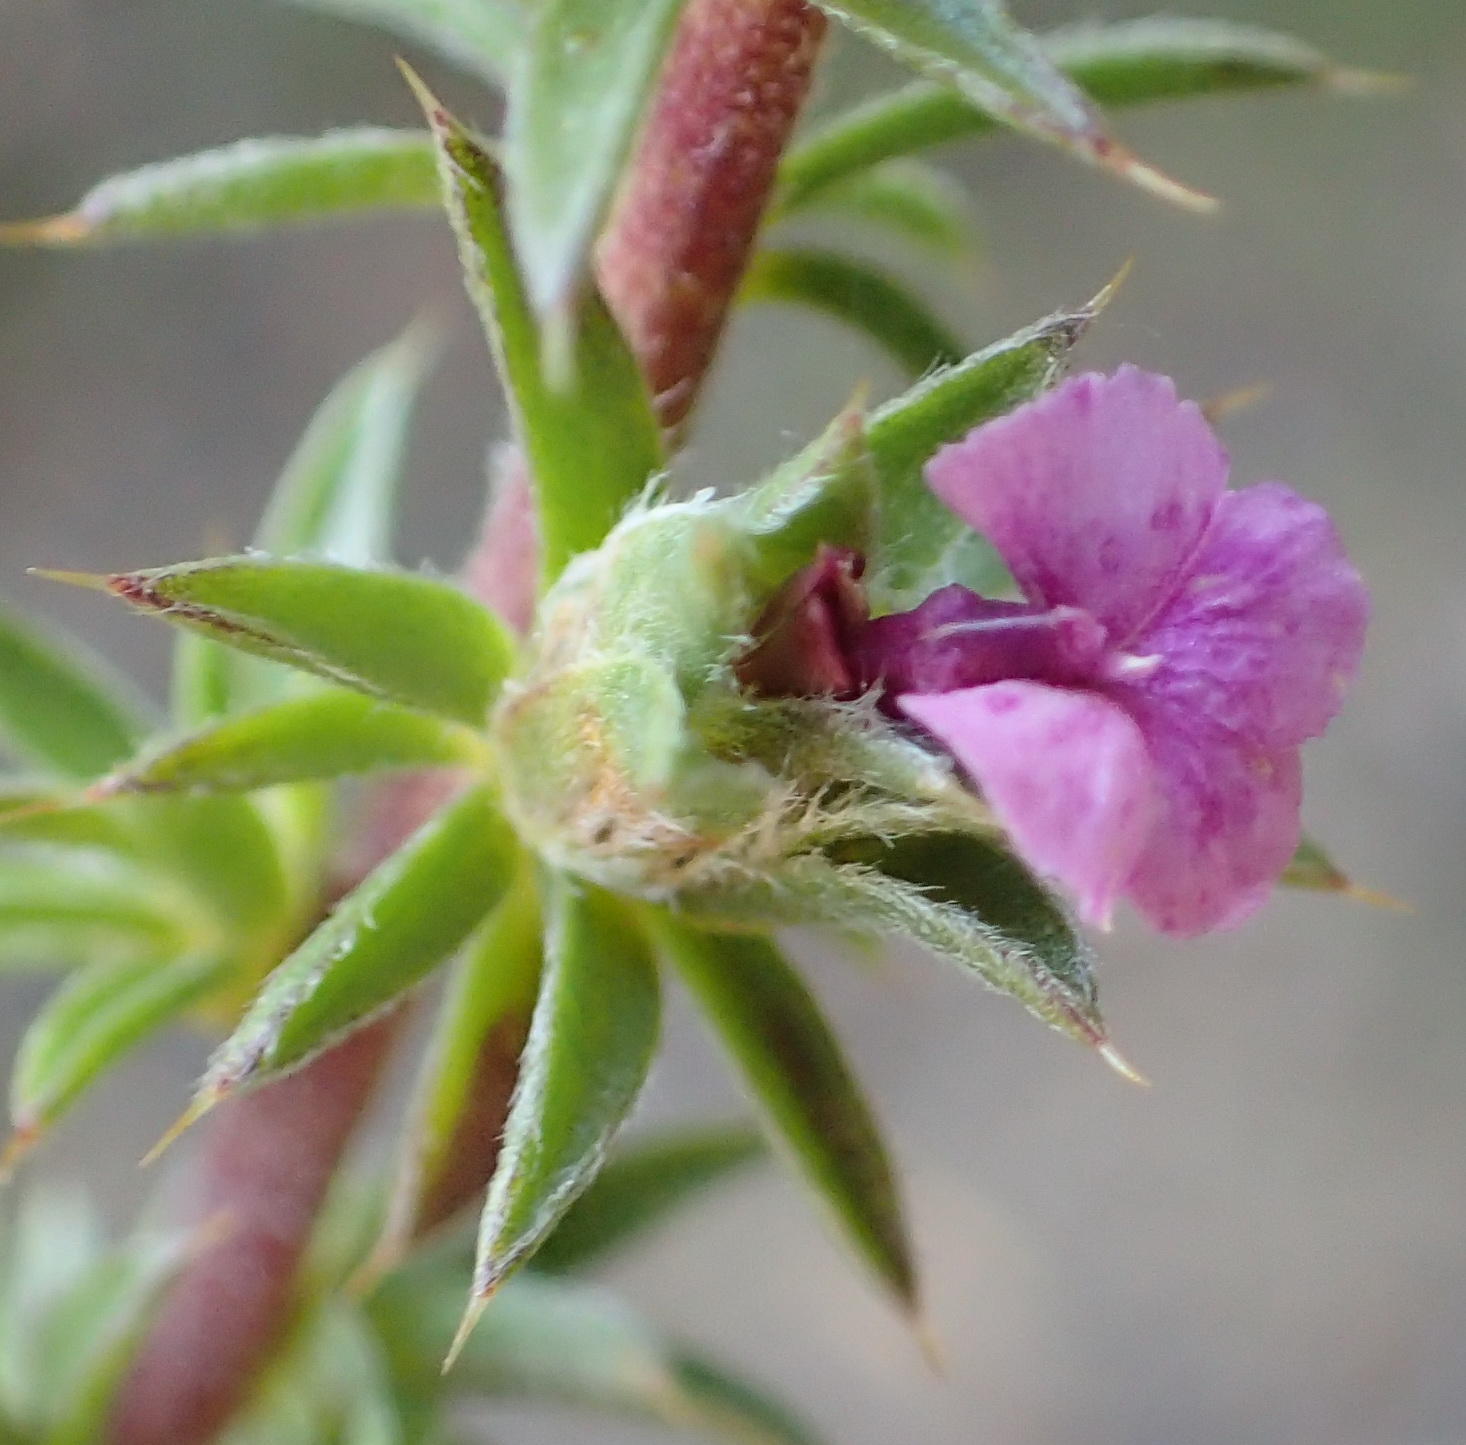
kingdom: Plantae
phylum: Tracheophyta
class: Magnoliopsida
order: Fabales
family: Polygalaceae
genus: Muraltia
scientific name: Muraltia satureioides
